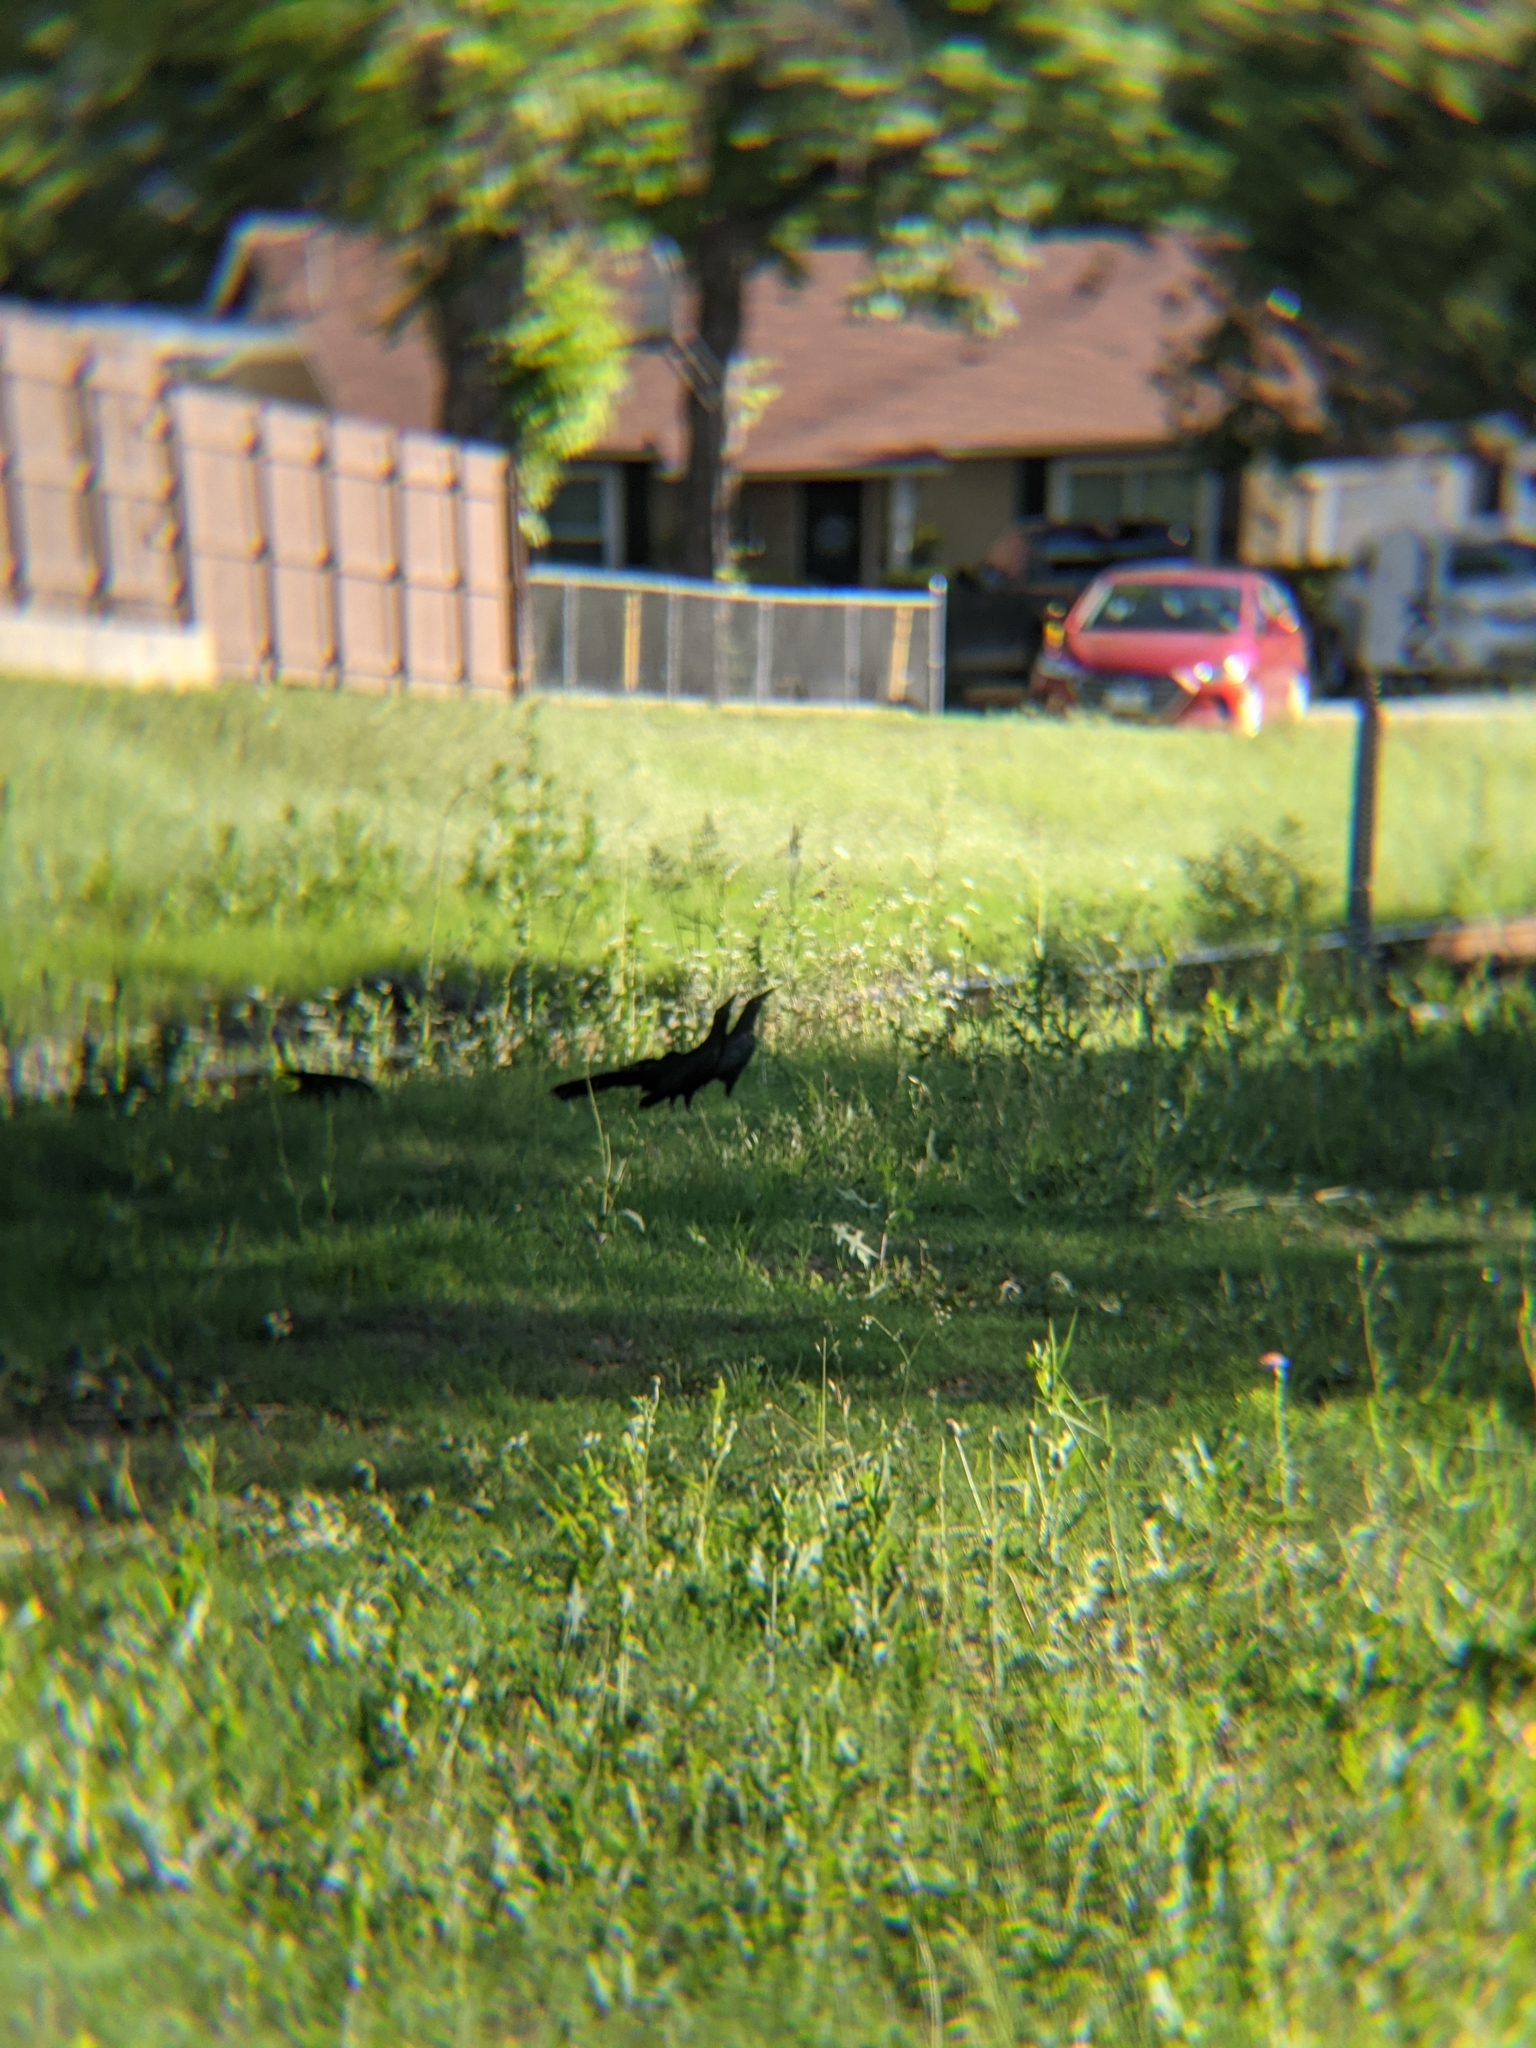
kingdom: Animalia
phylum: Chordata
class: Aves
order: Passeriformes
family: Icteridae
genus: Quiscalus
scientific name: Quiscalus mexicanus
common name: Great-tailed grackle
